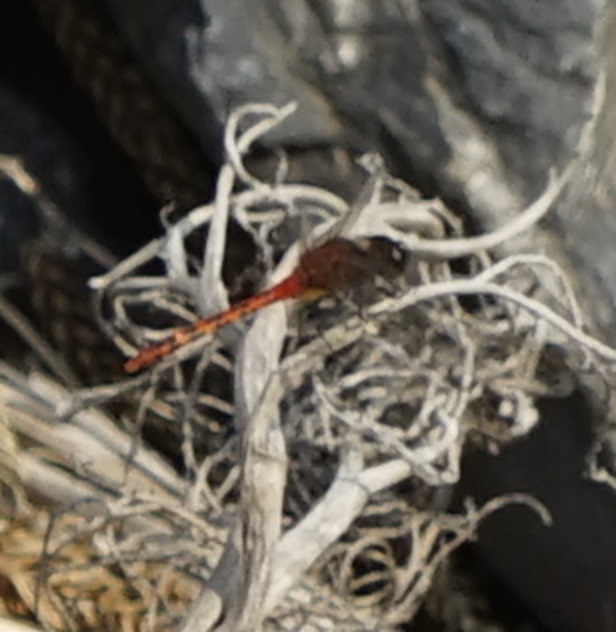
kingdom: Animalia
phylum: Arthropoda
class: Insecta
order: Odonata
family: Libellulidae
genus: Diplacodes
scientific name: Diplacodes melanopsis
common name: Black-faced percher
